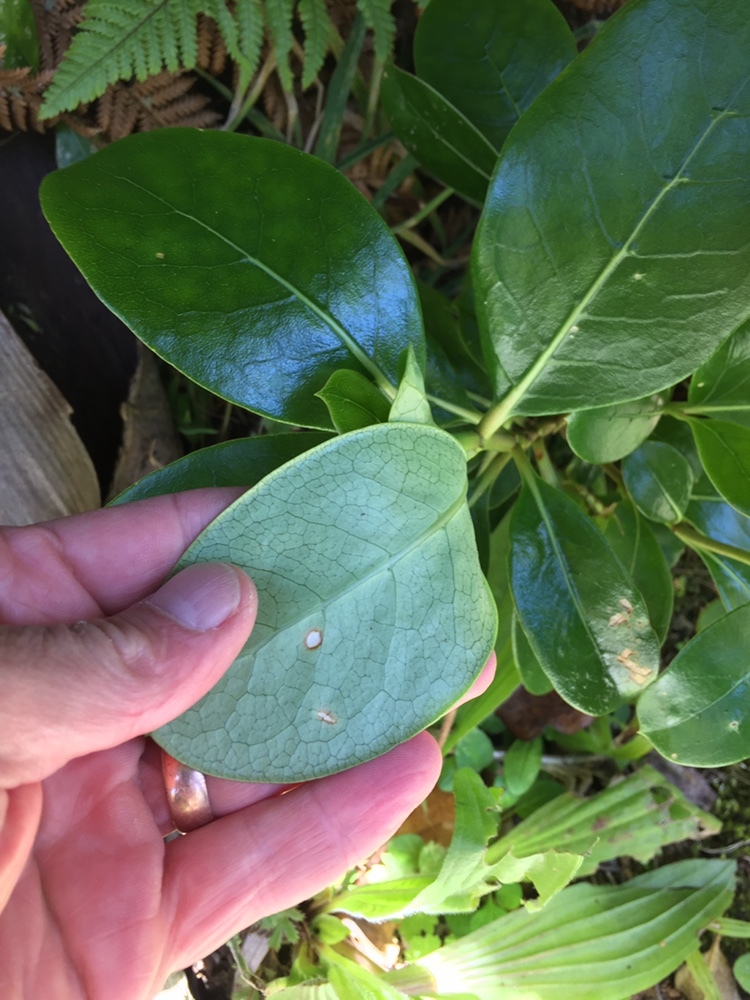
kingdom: Plantae
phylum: Tracheophyta
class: Magnoliopsida
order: Gentianales
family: Rubiaceae
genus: Coprosma
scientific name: Coprosma lucida
